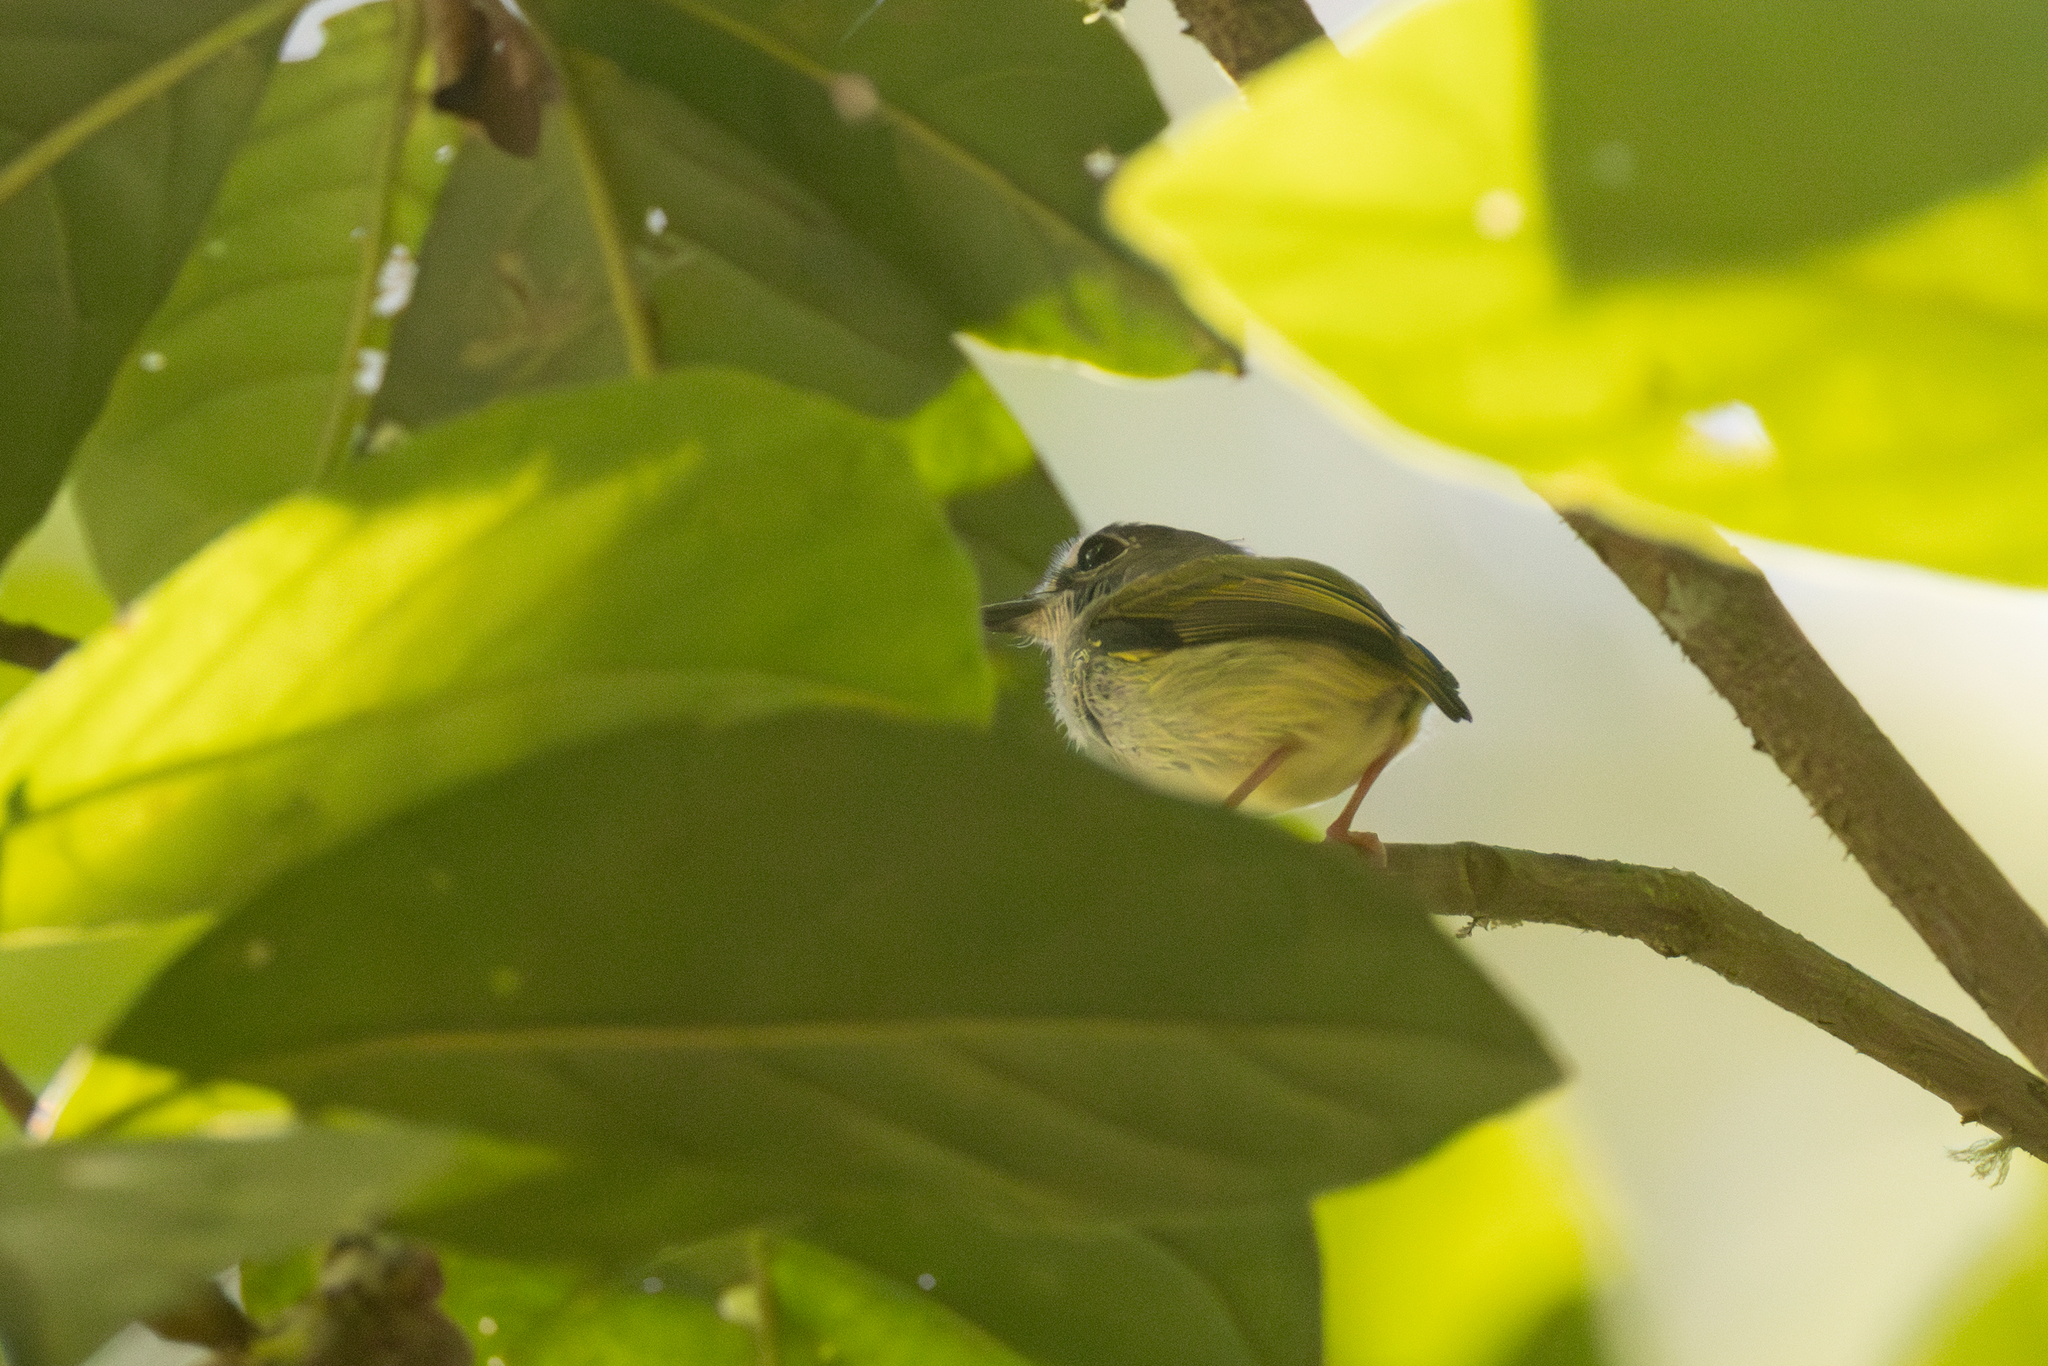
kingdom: Animalia
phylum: Chordata
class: Aves
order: Passeriformes
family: Tyrannidae
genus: Myiornis
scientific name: Myiornis atricapillus
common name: Black-capped pygmy-tyrant
